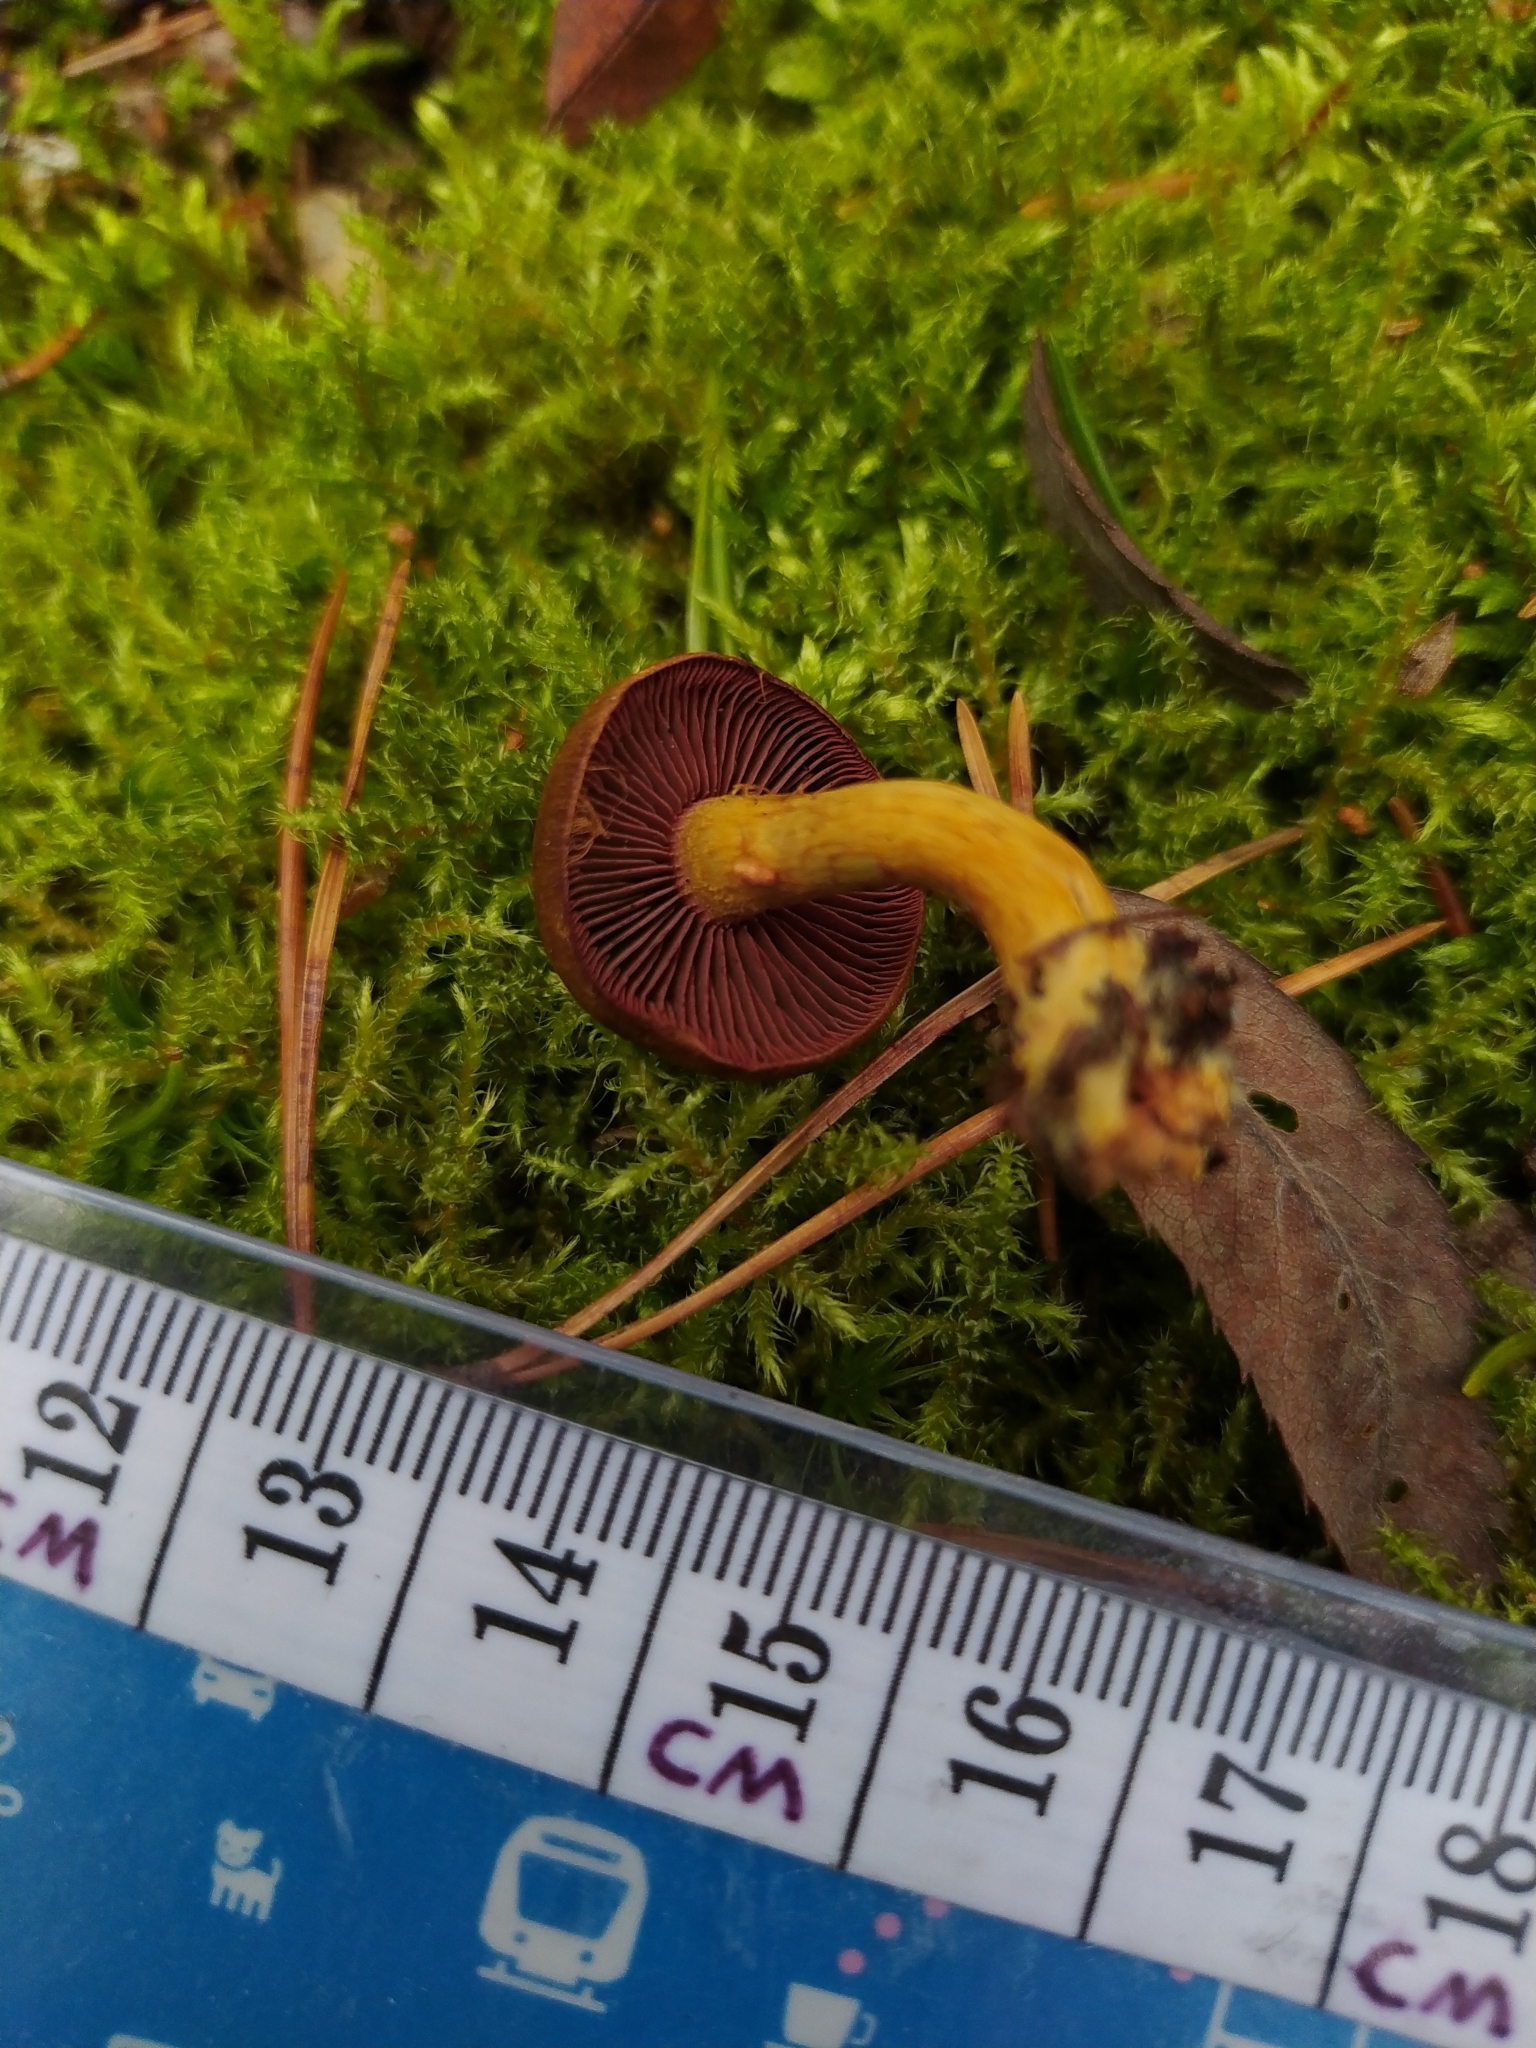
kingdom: Fungi
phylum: Basidiomycota
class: Agaricomycetes
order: Agaricales
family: Cortinariaceae
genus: Cortinarius
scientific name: Cortinarius semisanguineus
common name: Surprise webcap
